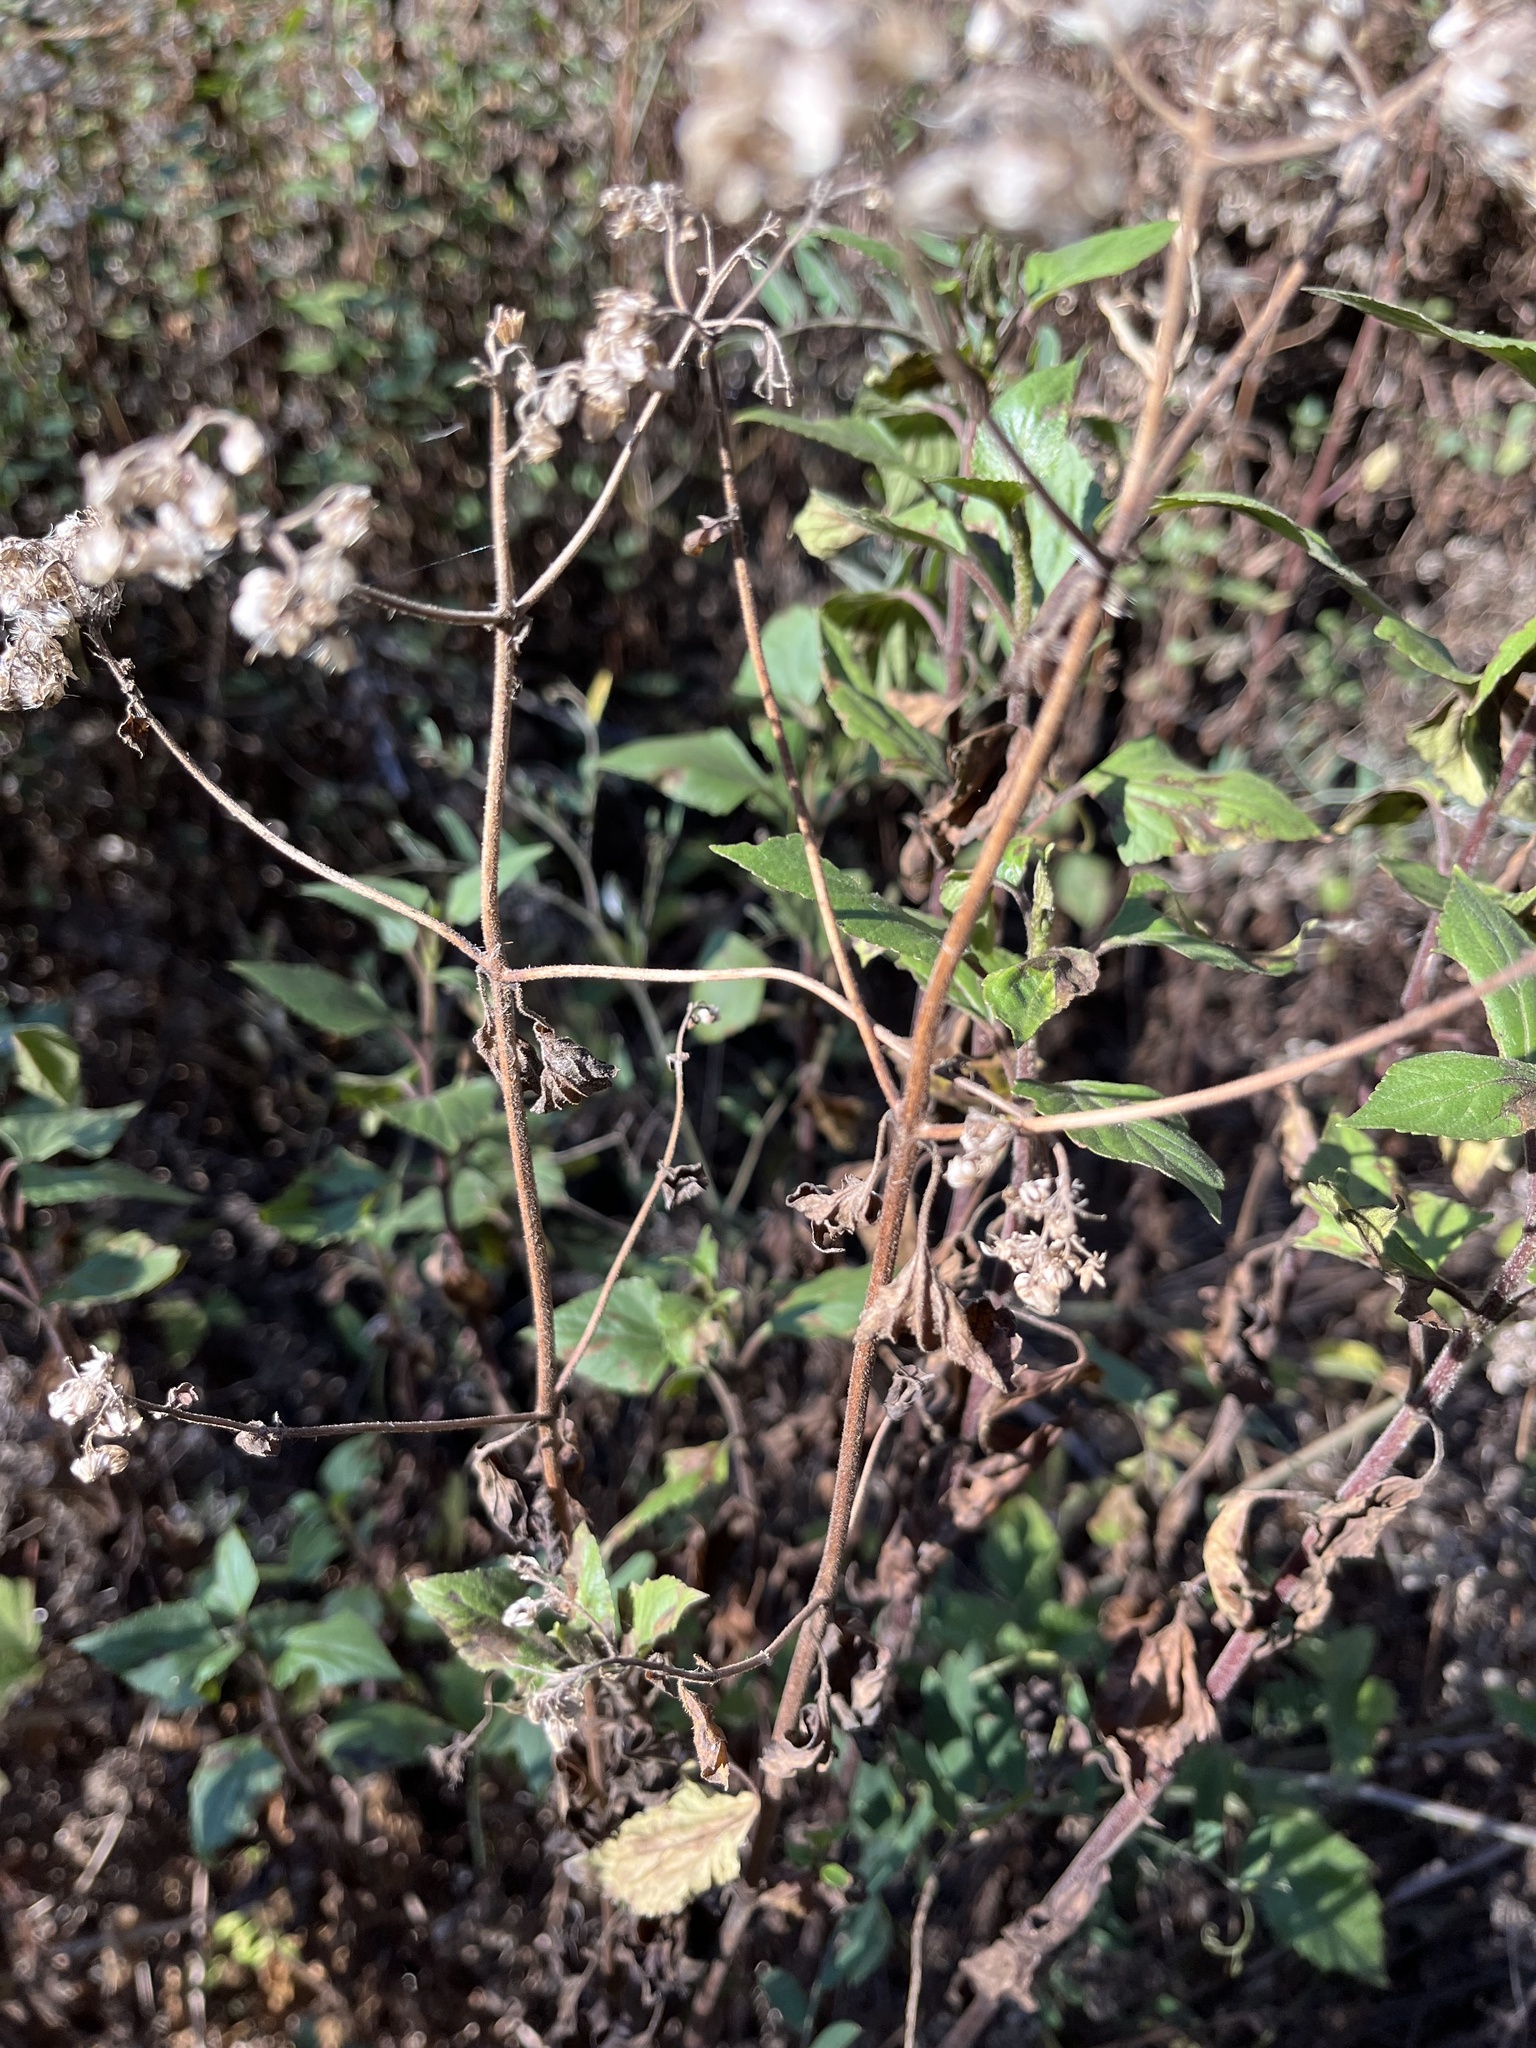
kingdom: Plantae
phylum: Tracheophyta
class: Magnoliopsida
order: Asterales
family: Asteraceae
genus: Ageratina
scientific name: Ageratina adenophora
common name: Sticky snakeroot
